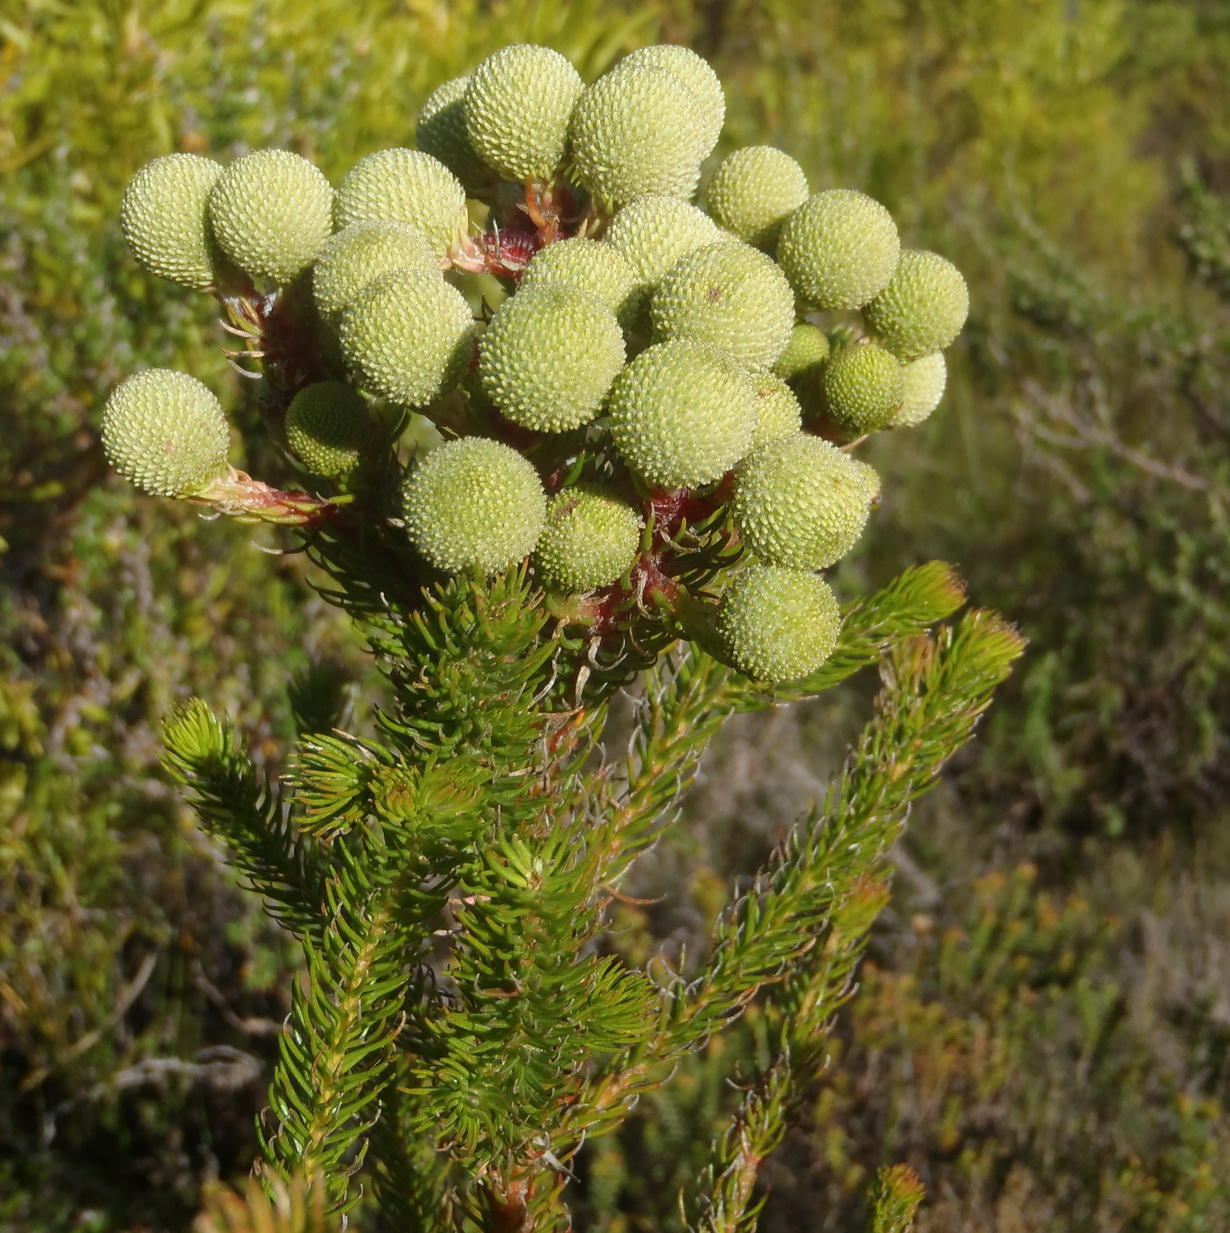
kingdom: Plantae
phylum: Tracheophyta
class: Magnoliopsida
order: Bruniales
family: Bruniaceae
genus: Berzelia
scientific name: Berzelia abrotanoides
